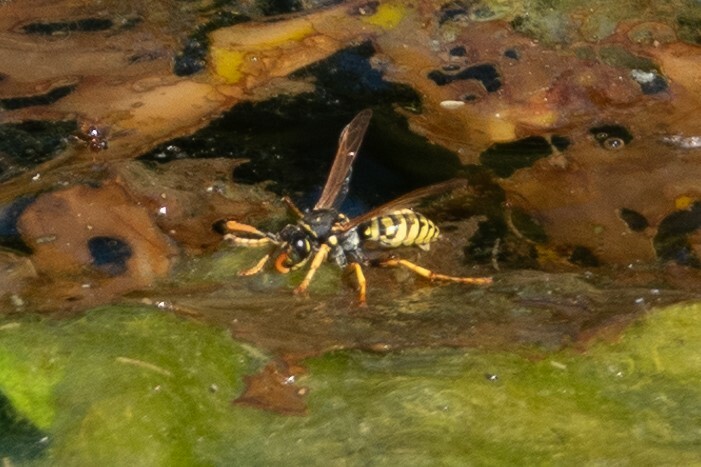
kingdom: Animalia
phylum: Arthropoda
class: Insecta
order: Hymenoptera
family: Eumenidae
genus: Polistes
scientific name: Polistes dominula
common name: Paper wasp
